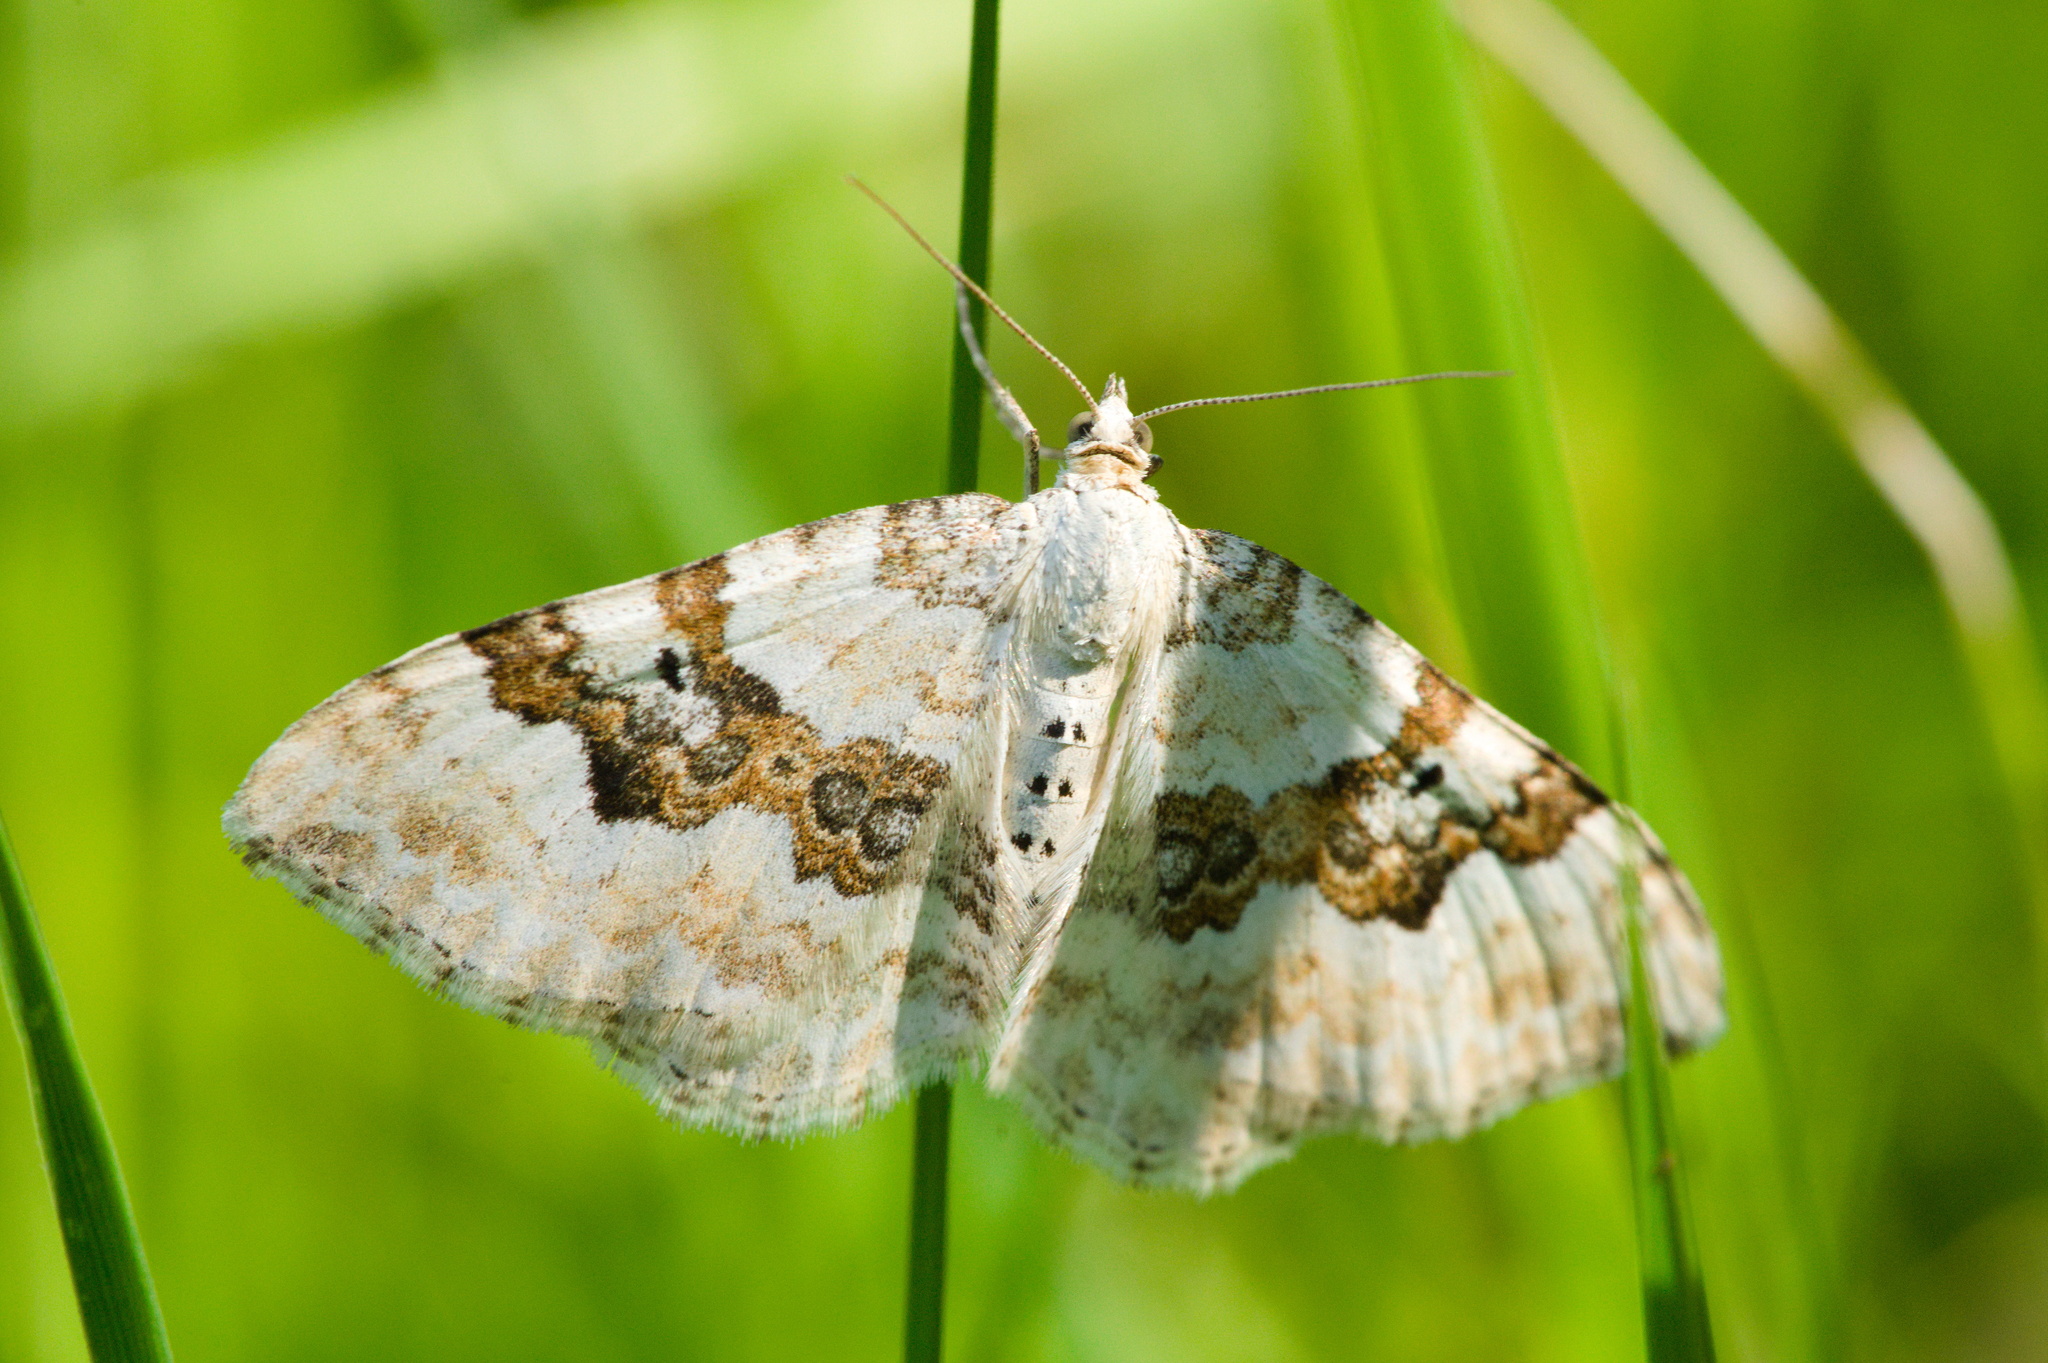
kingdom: Animalia
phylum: Arthropoda
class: Insecta
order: Lepidoptera
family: Geometridae
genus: Xanthorhoe
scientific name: Xanthorhoe montanata
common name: Silver-ground carpet
